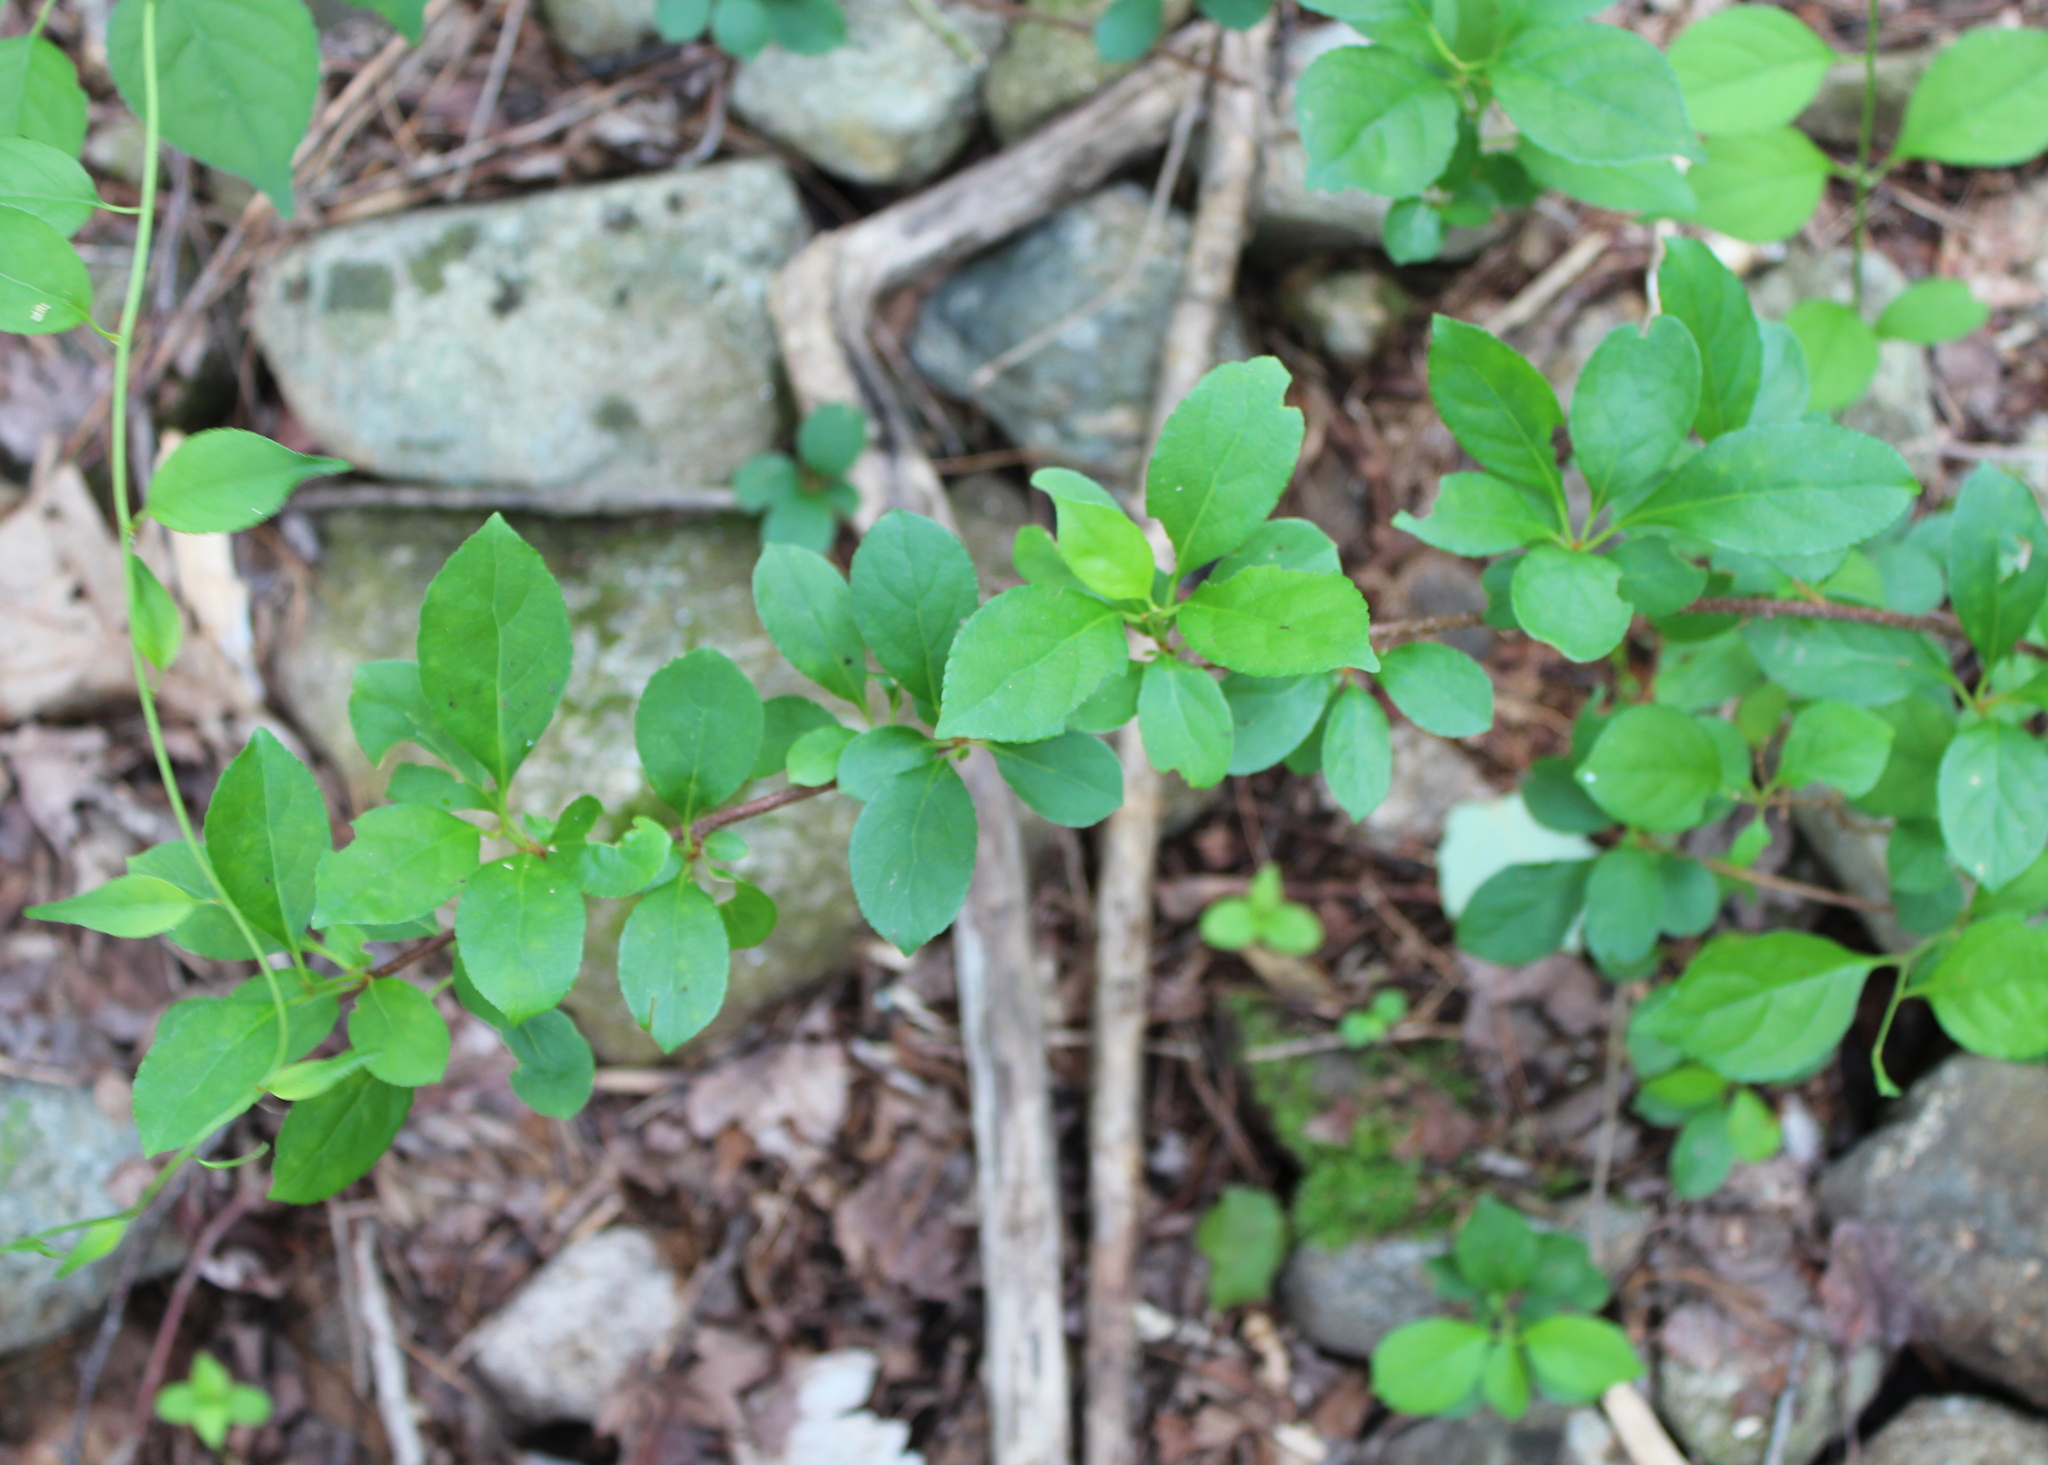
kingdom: Plantae
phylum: Tracheophyta
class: Magnoliopsida
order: Celastrales
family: Celastraceae
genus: Celastrus
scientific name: Celastrus orbiculatus
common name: Oriental bittersweet
